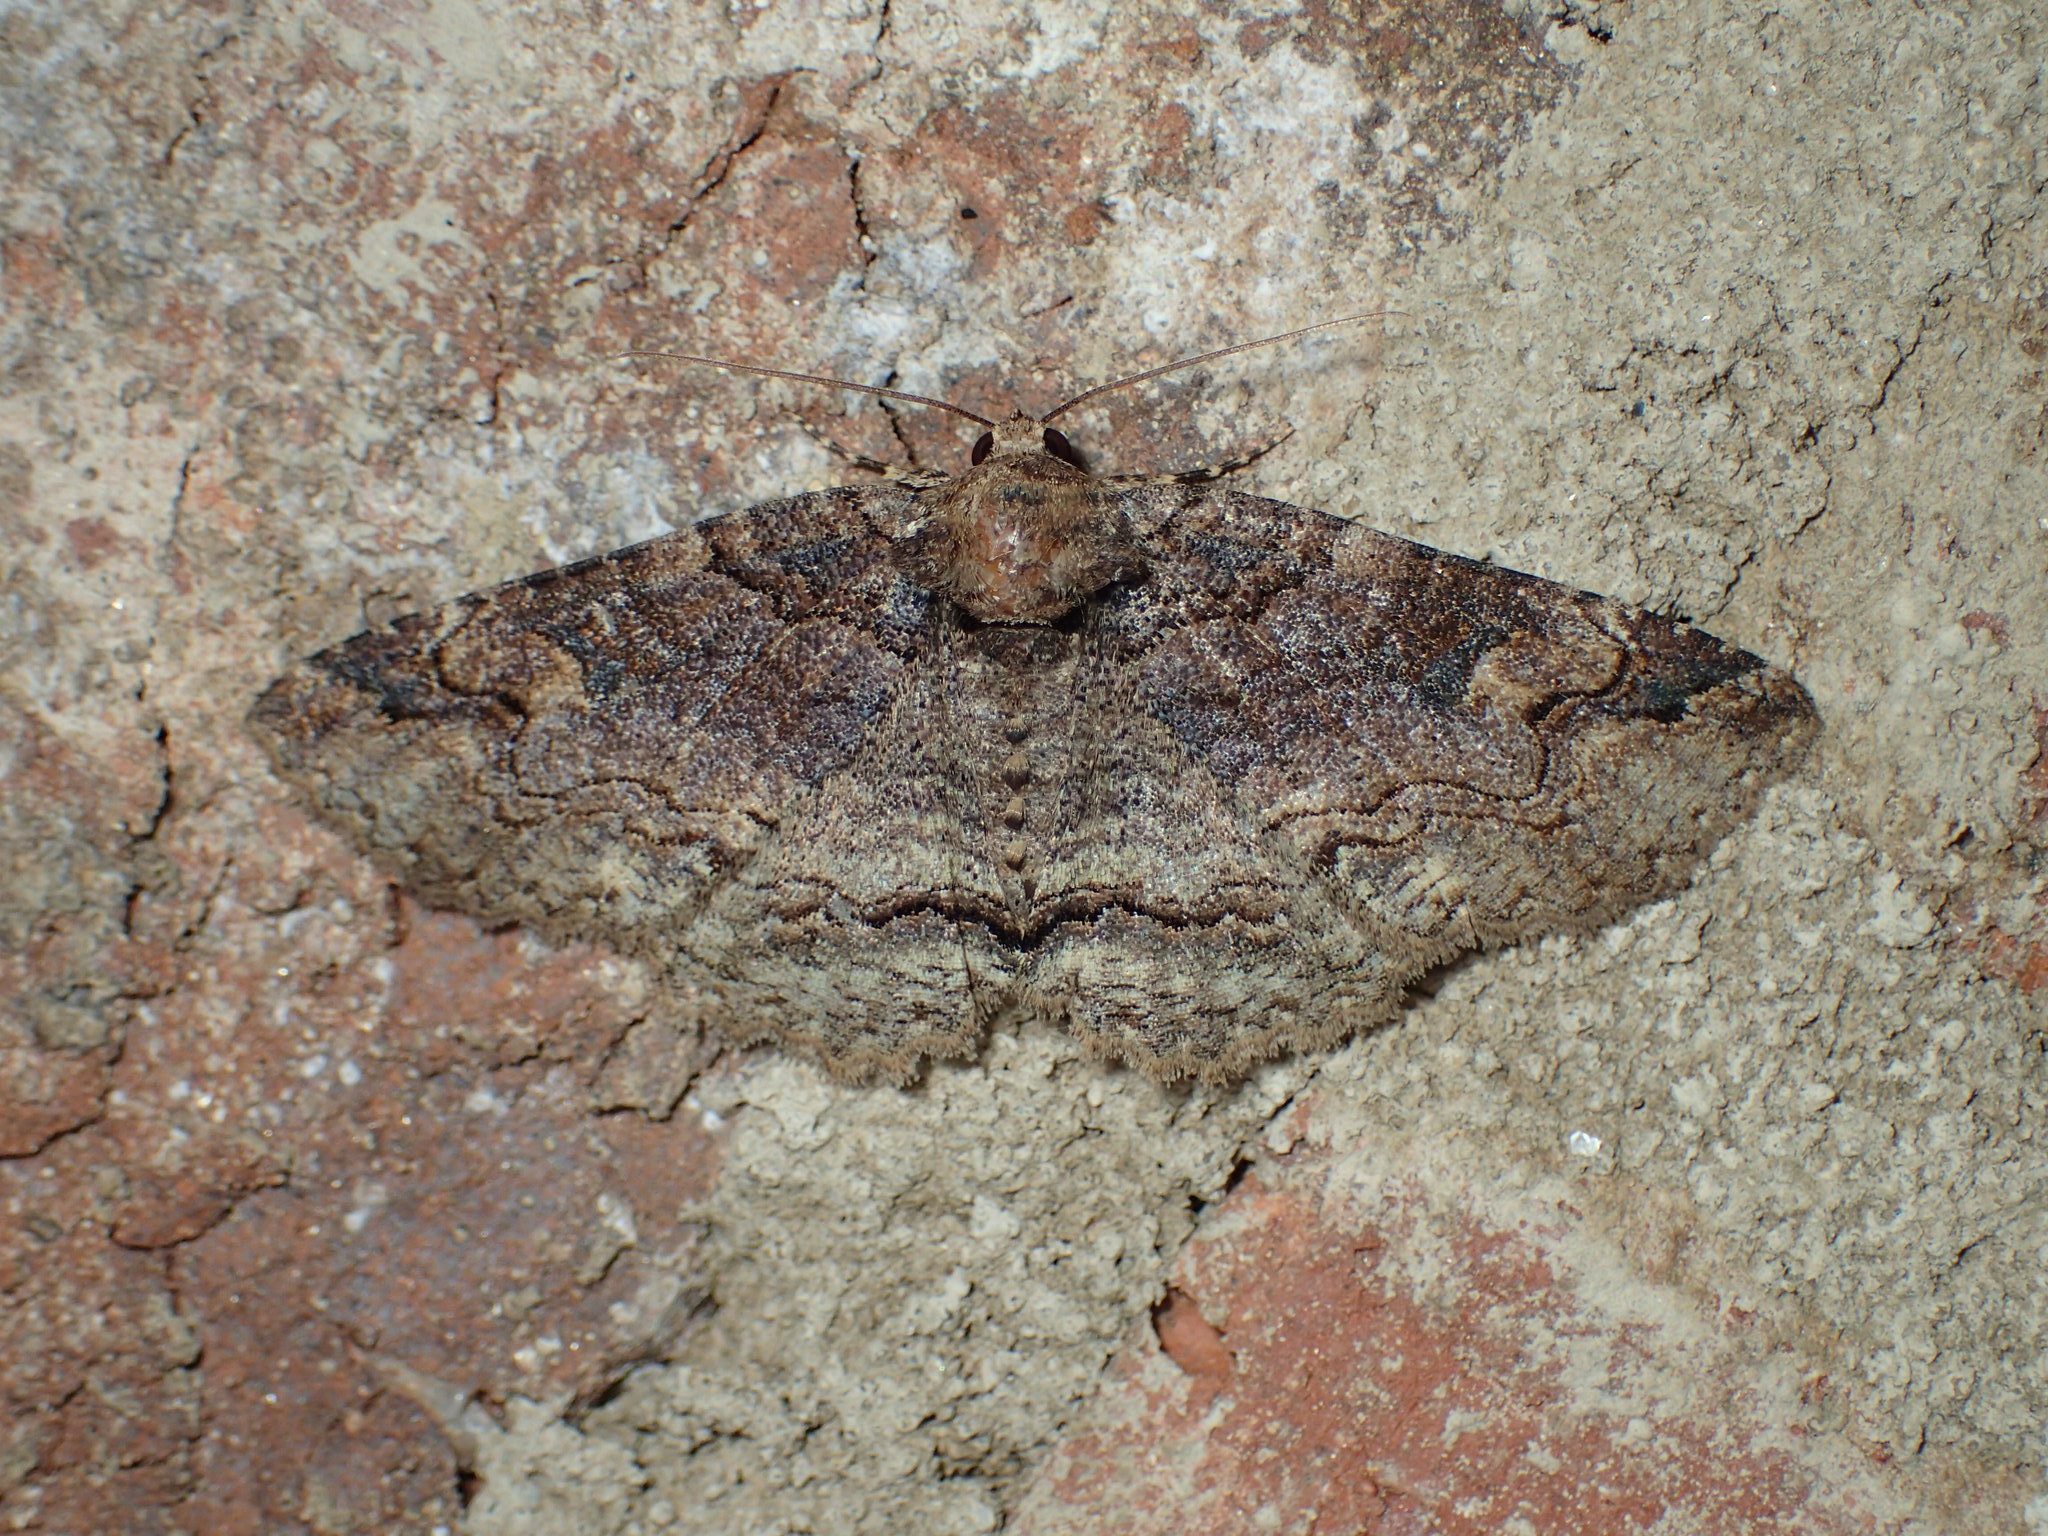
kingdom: Animalia
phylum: Arthropoda
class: Insecta
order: Lepidoptera
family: Erebidae
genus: Zale
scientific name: Zale phaeocapna
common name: Hazel zale moth
